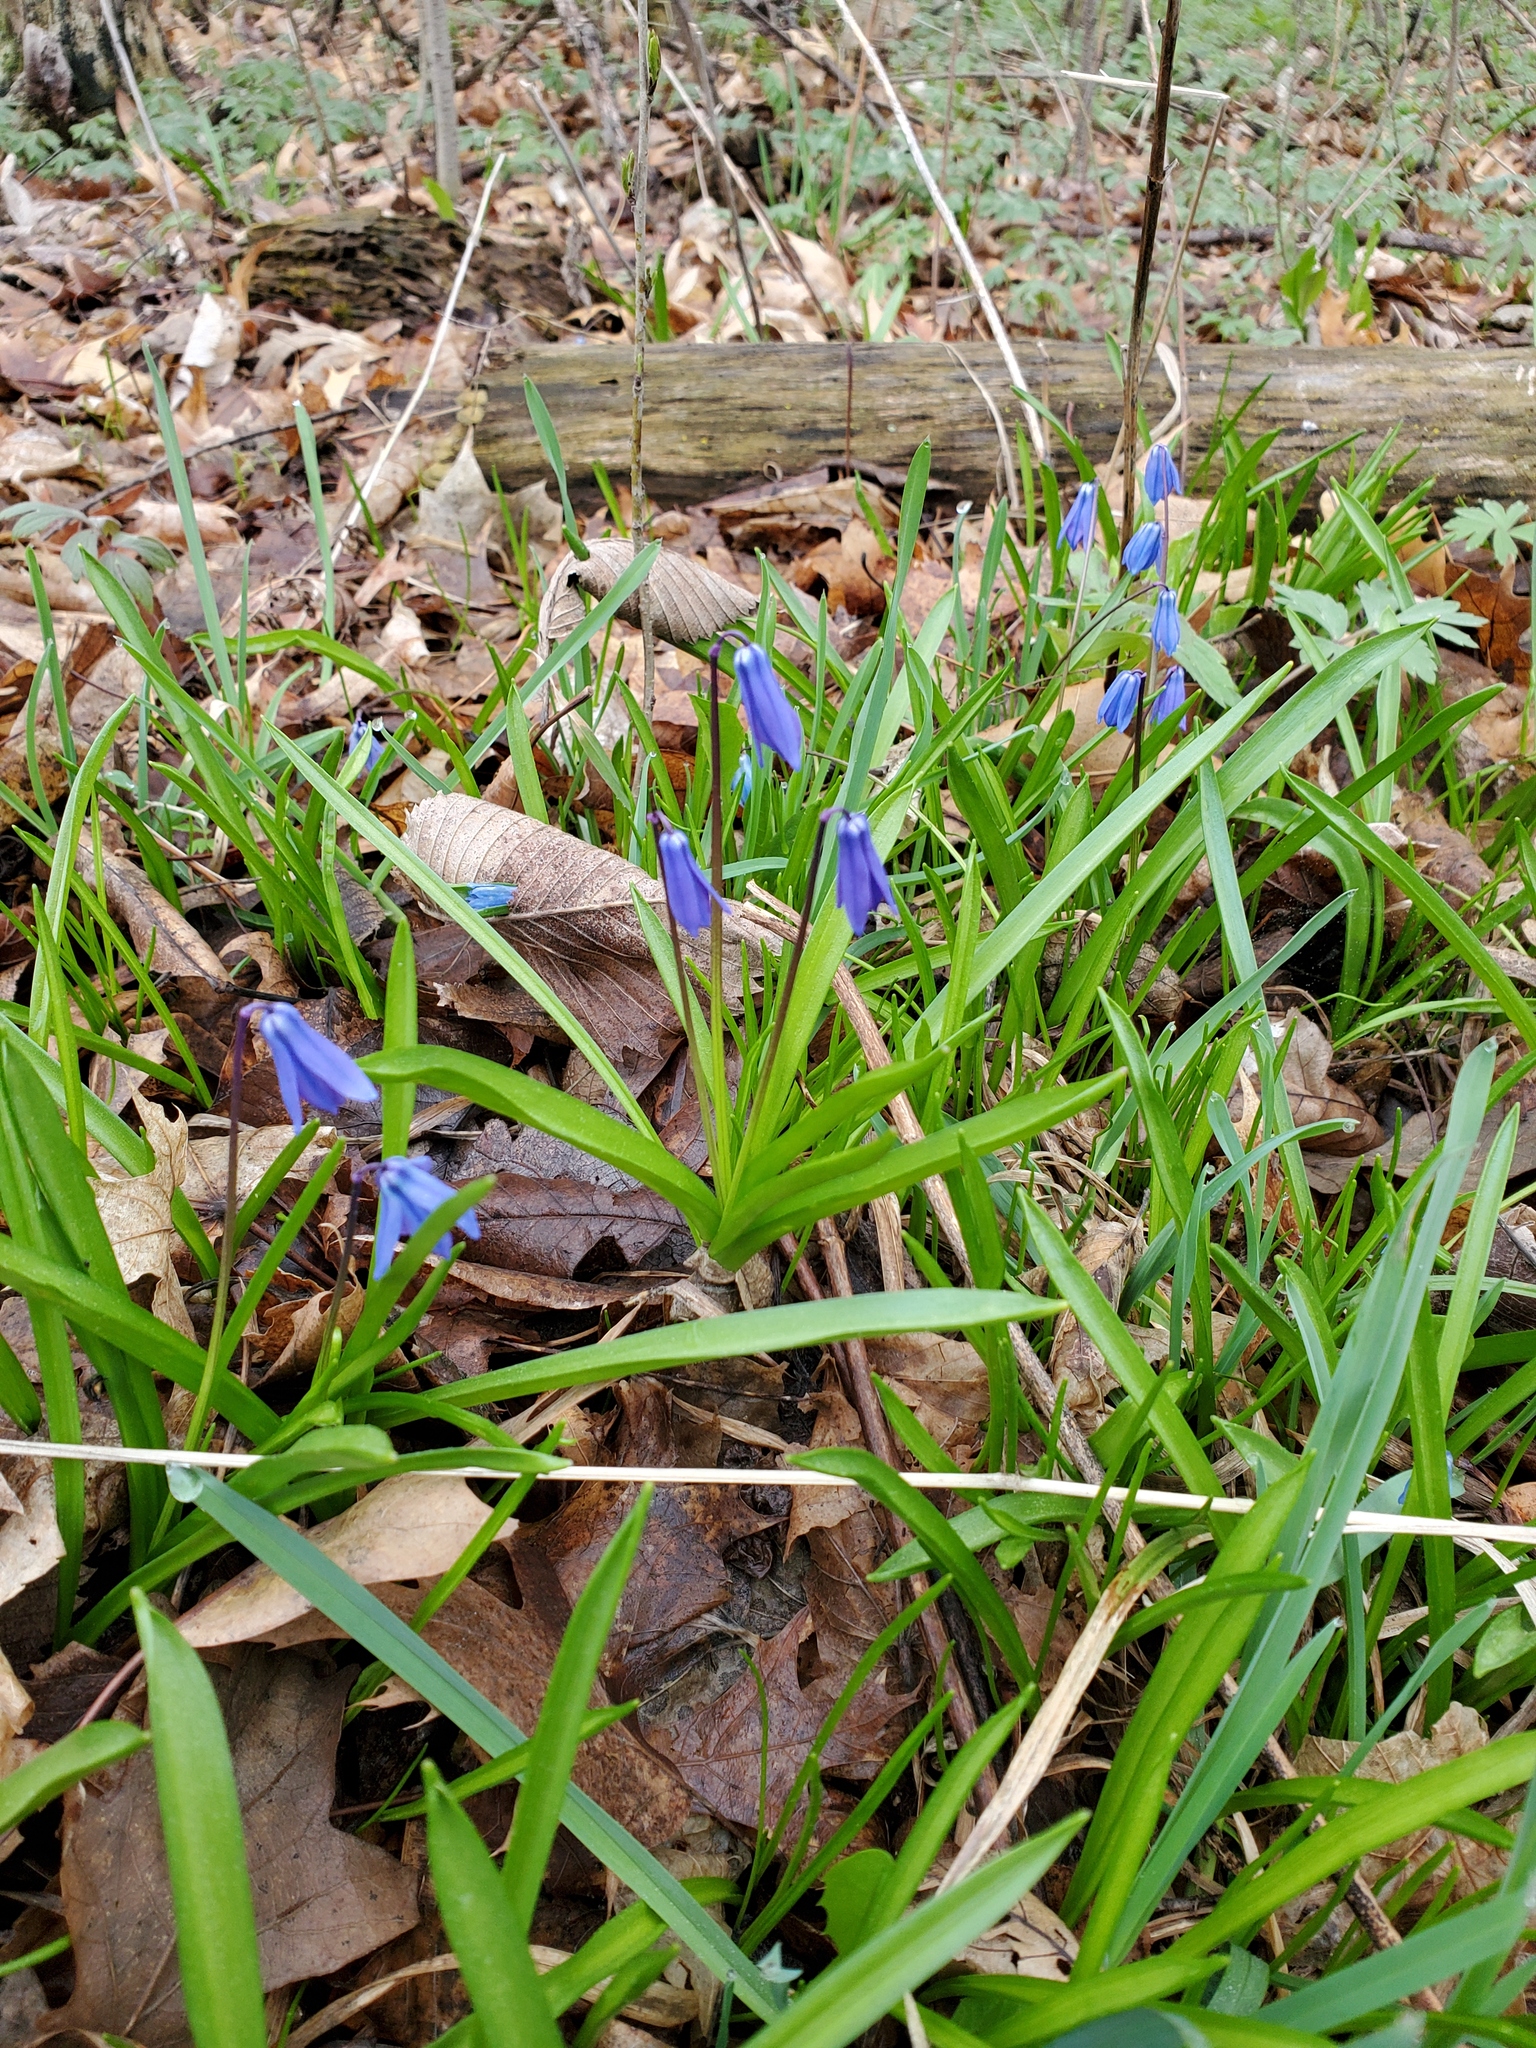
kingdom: Plantae
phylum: Tracheophyta
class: Liliopsida
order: Asparagales
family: Asparagaceae
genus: Scilla
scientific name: Scilla siberica
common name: Siberian squill
